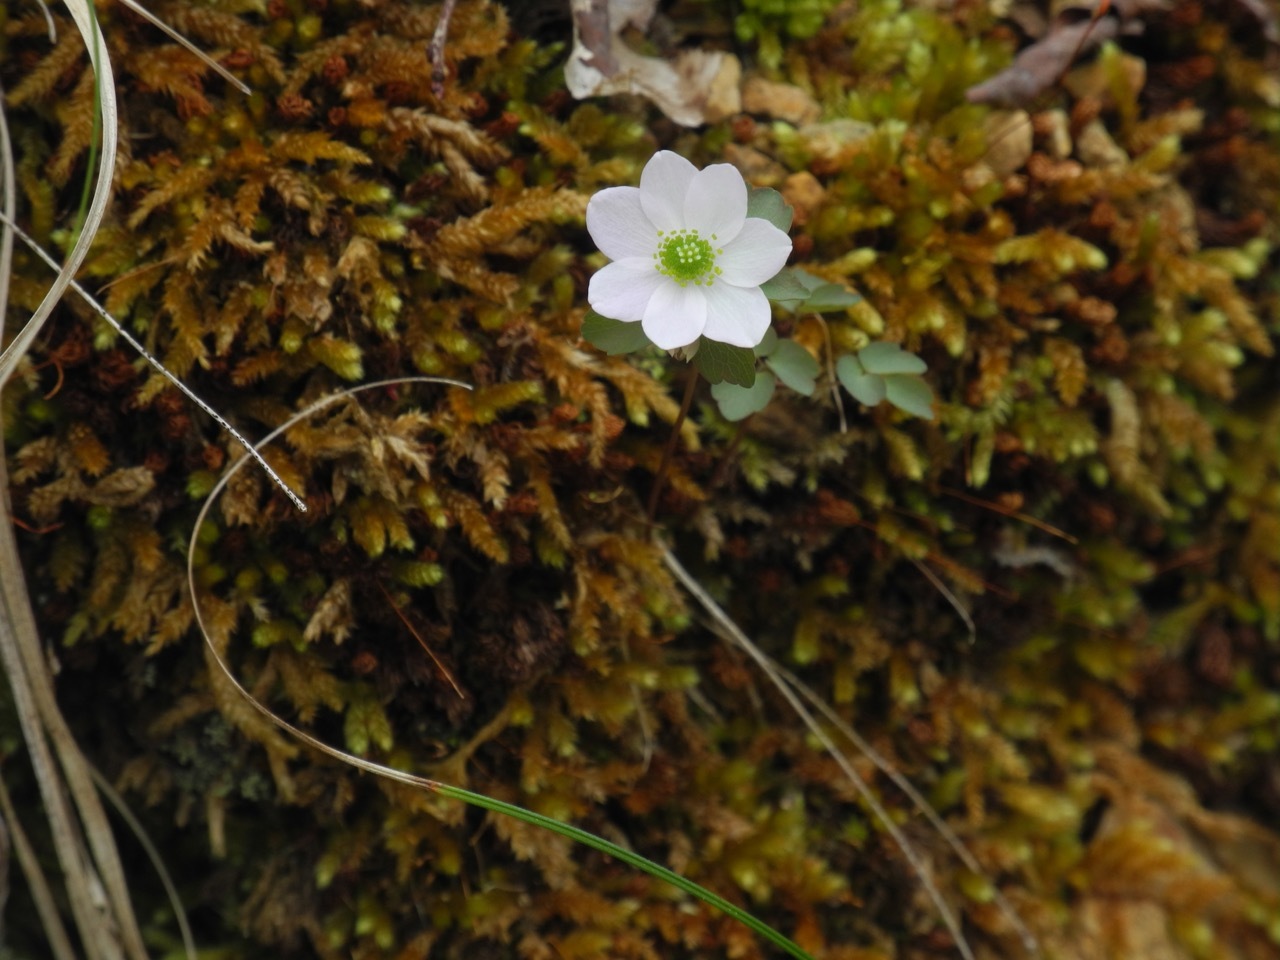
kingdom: Plantae
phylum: Tracheophyta
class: Magnoliopsida
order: Ranunculales
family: Ranunculaceae
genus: Thalictrum
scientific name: Thalictrum thalictroides
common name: Rue-anemone
